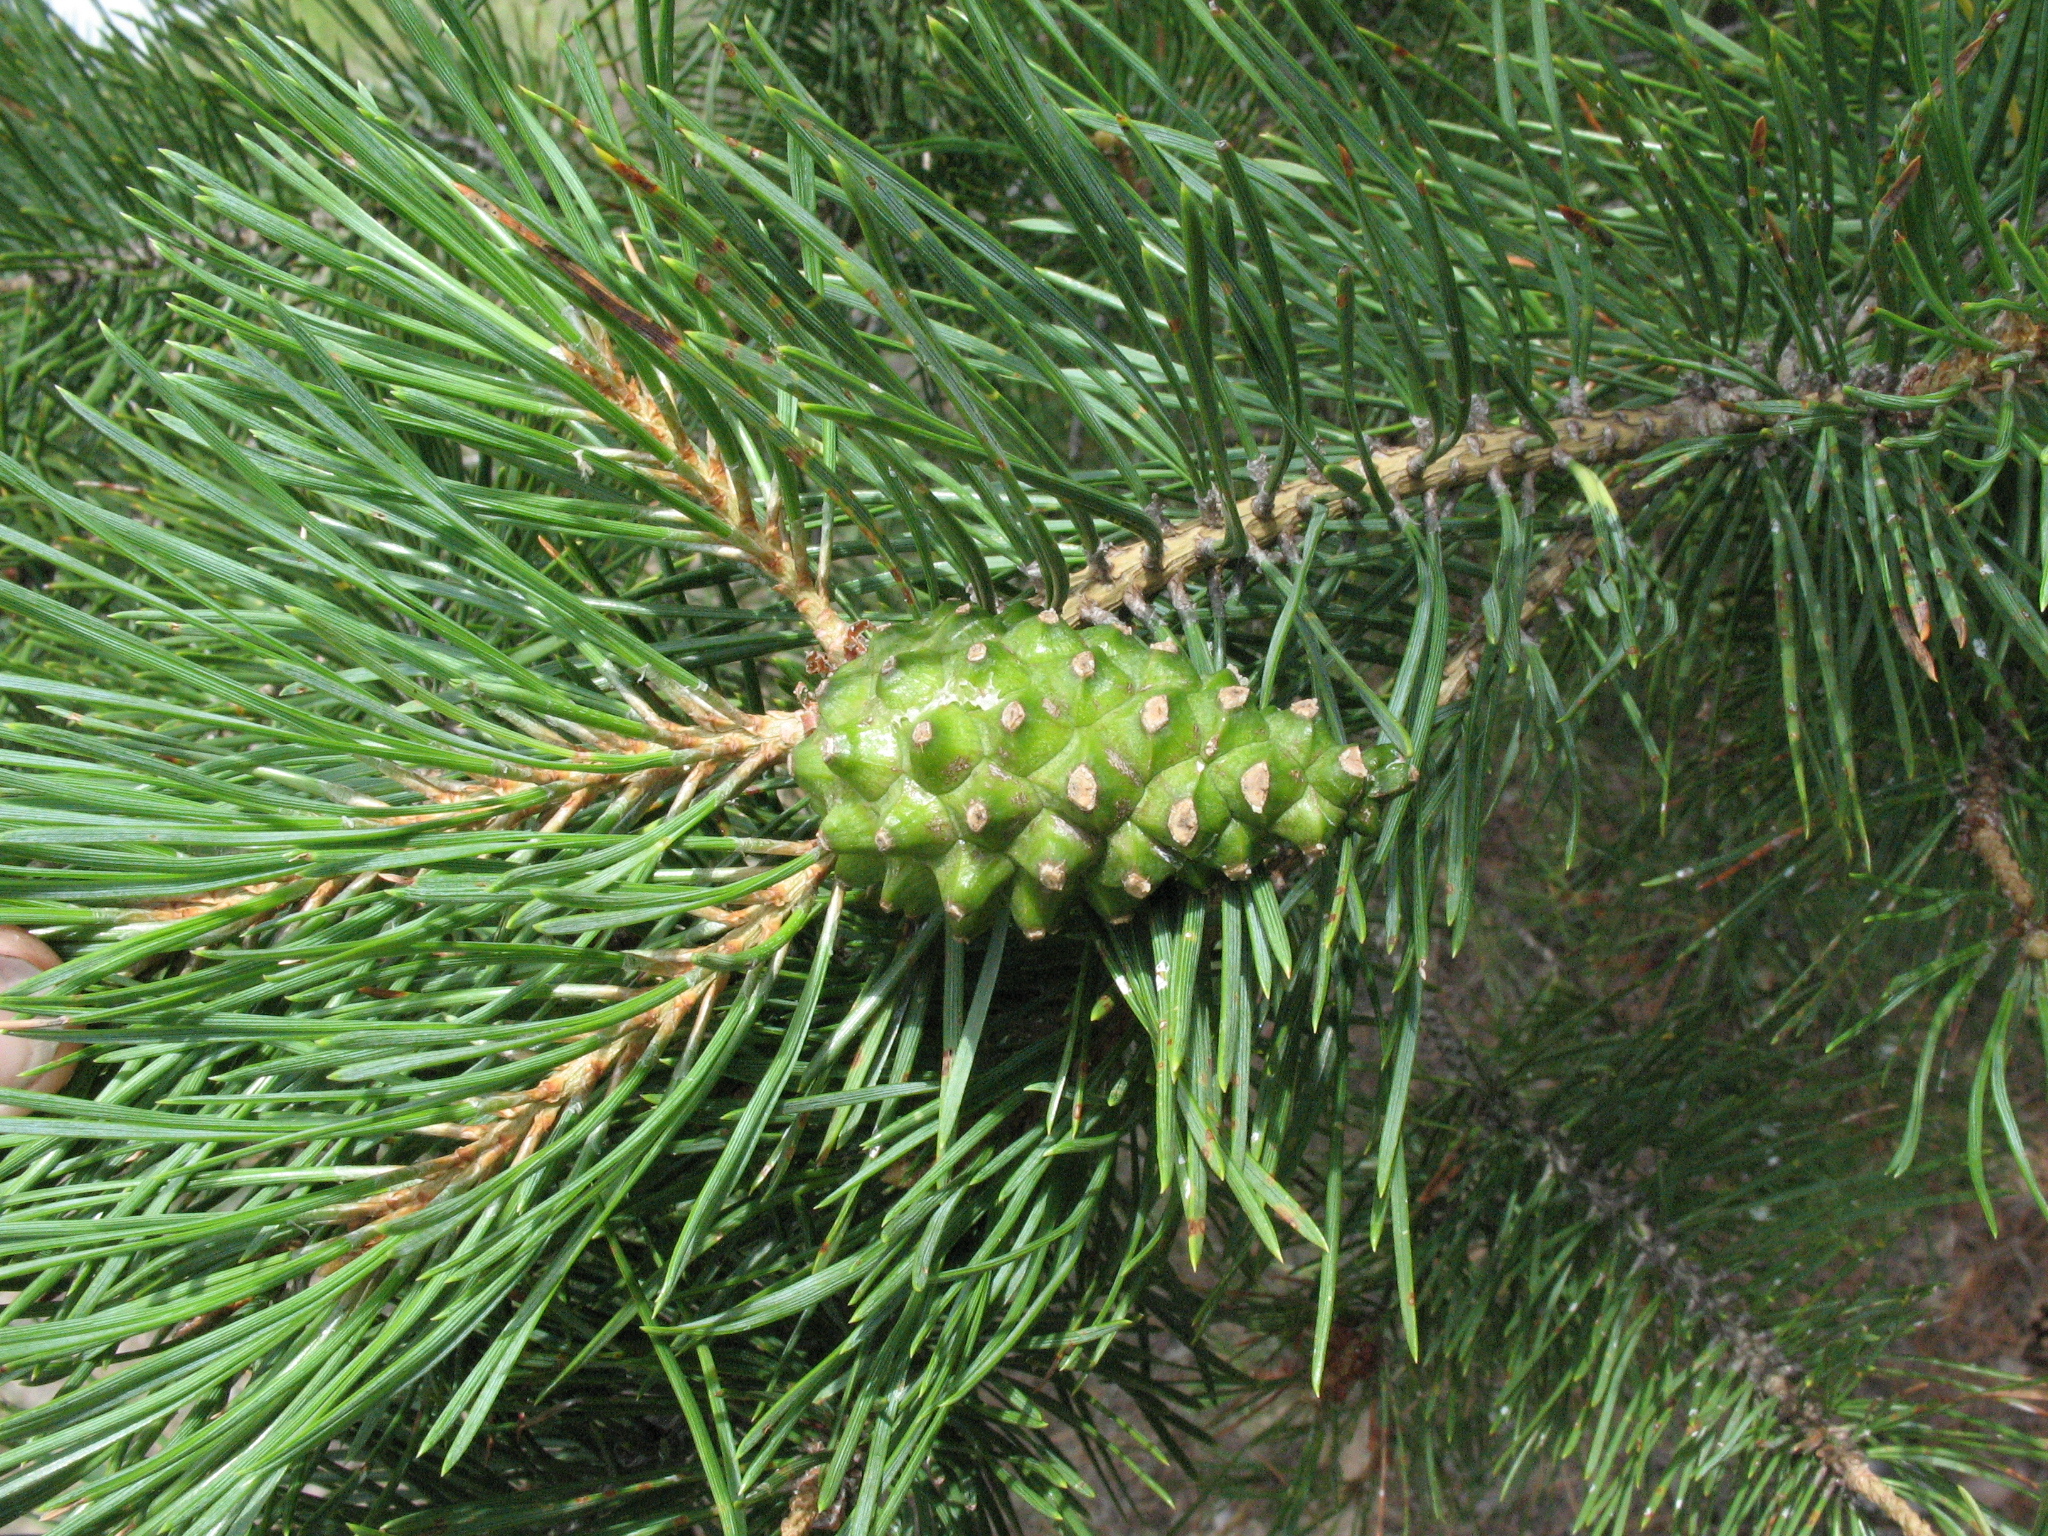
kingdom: Plantae
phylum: Tracheophyta
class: Pinopsida
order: Pinales
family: Pinaceae
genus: Pinus
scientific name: Pinus sylvestris
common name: Scots pine
